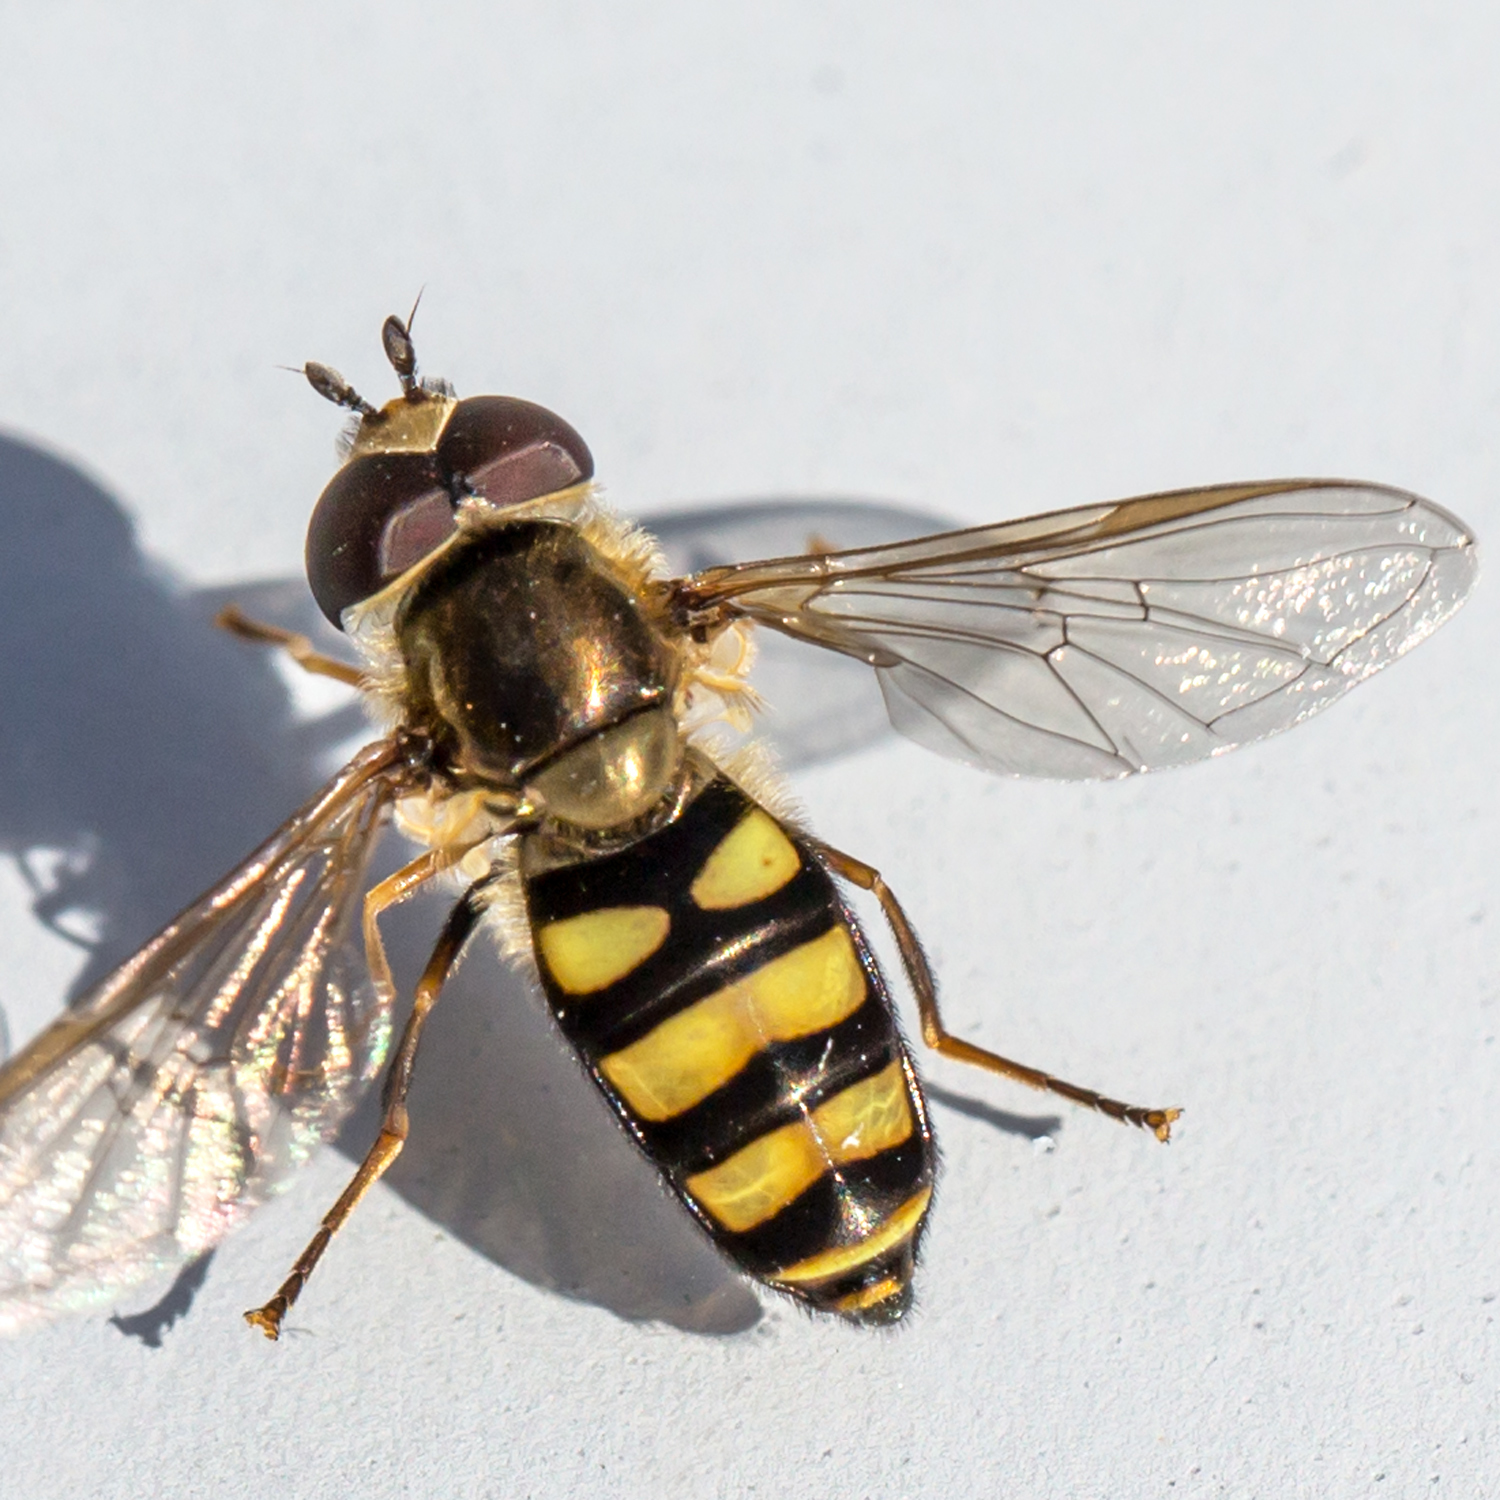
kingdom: Animalia
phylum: Arthropoda
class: Insecta
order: Diptera
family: Syrphidae
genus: Eupeodes
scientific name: Eupeodes
